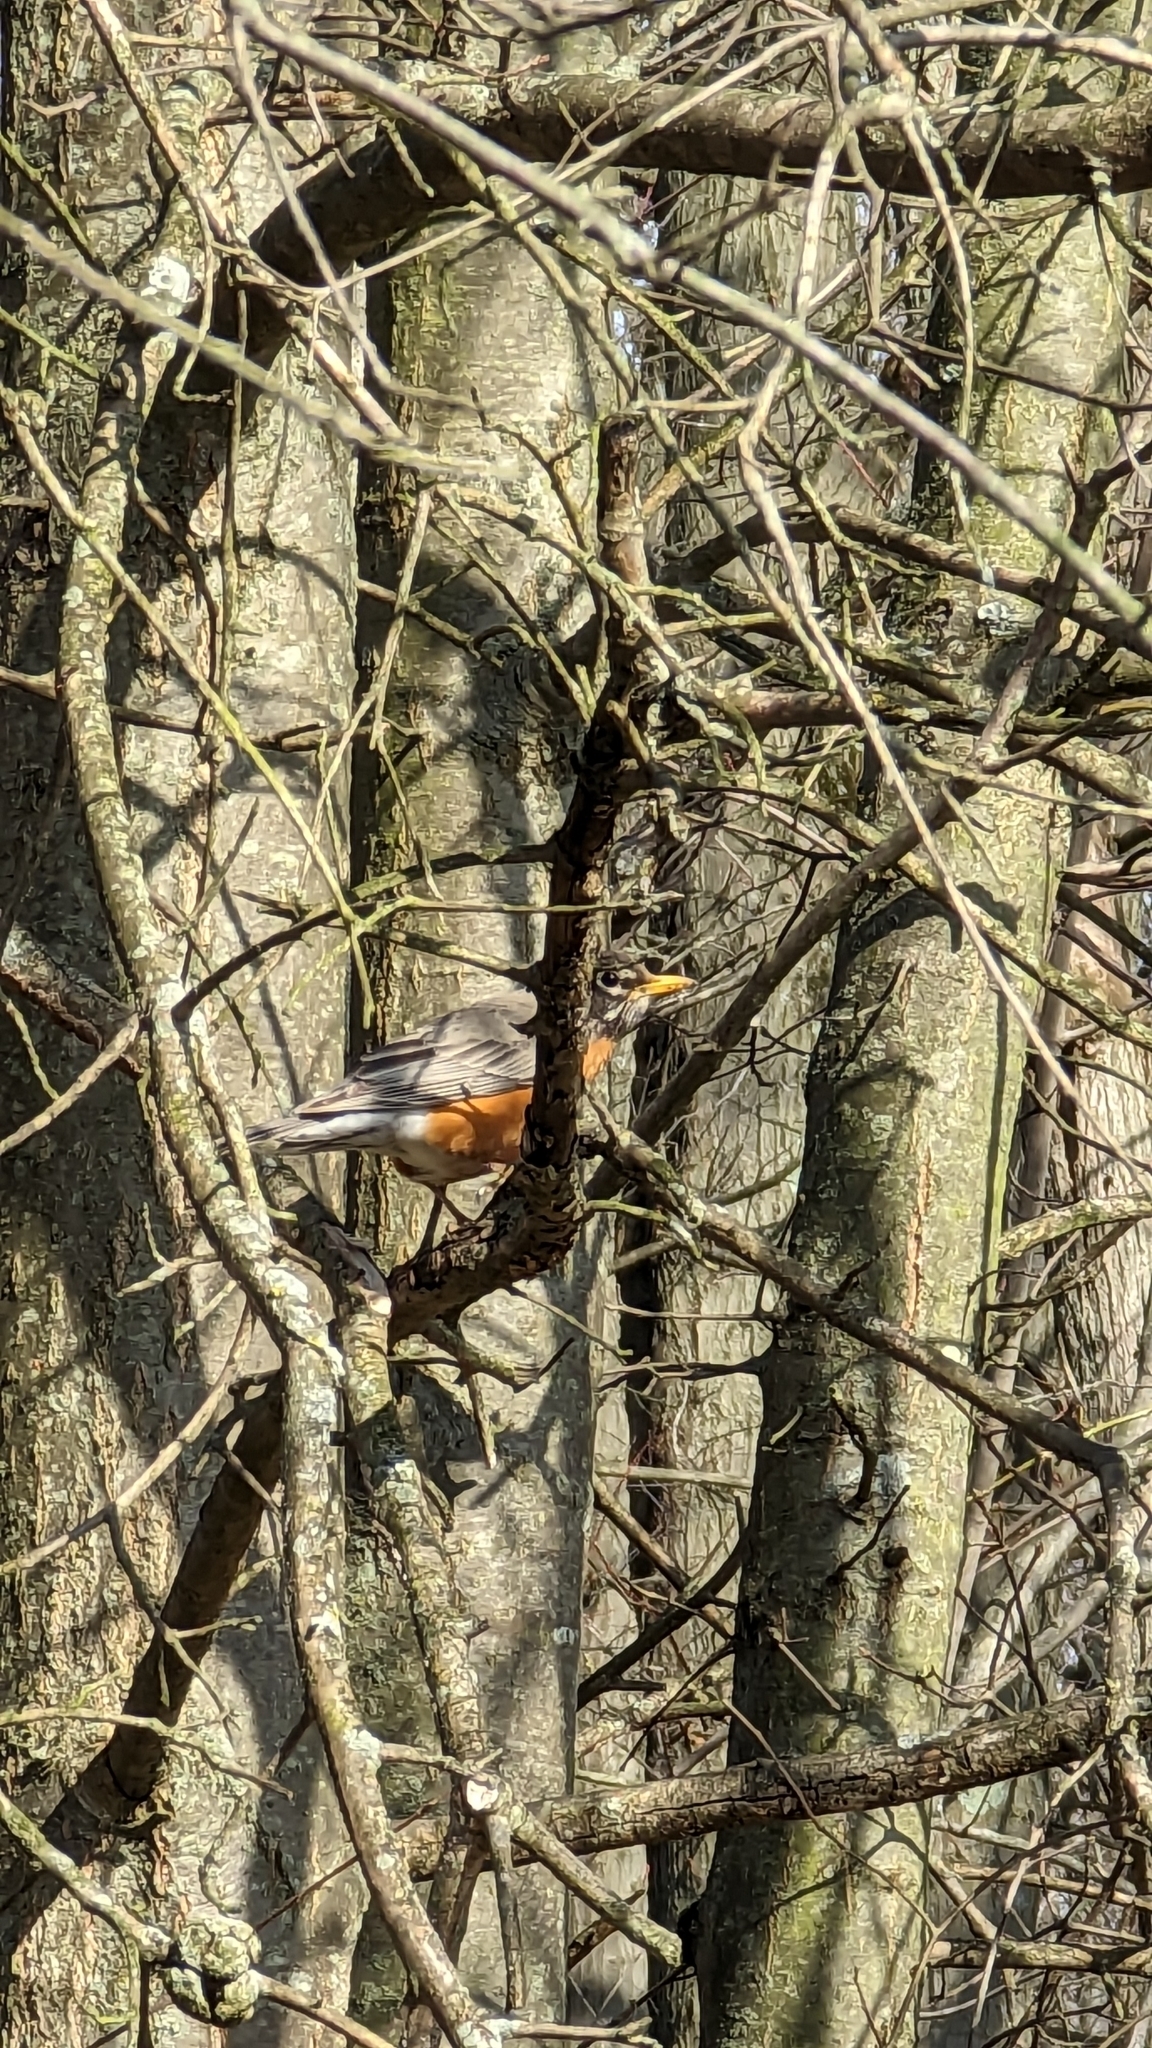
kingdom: Animalia
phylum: Chordata
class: Aves
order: Passeriformes
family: Turdidae
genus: Turdus
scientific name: Turdus migratorius
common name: American robin
